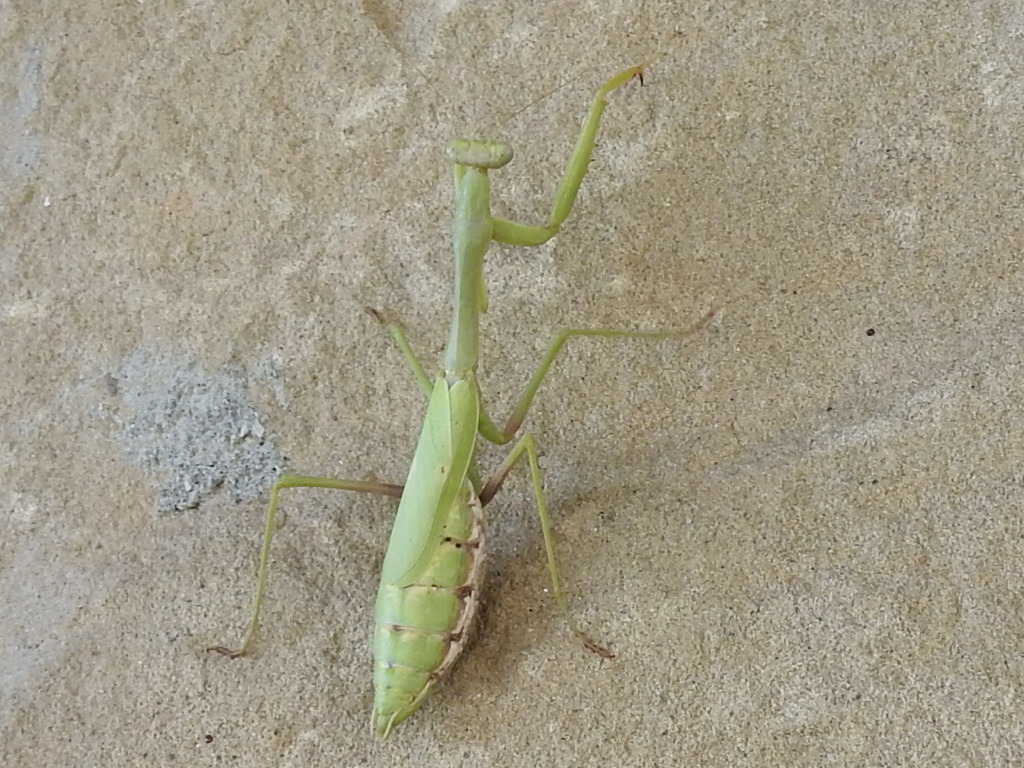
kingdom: Animalia
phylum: Arthropoda
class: Insecta
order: Mantodea
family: Mantidae
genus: Stagmomantis
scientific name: Stagmomantis carolina
